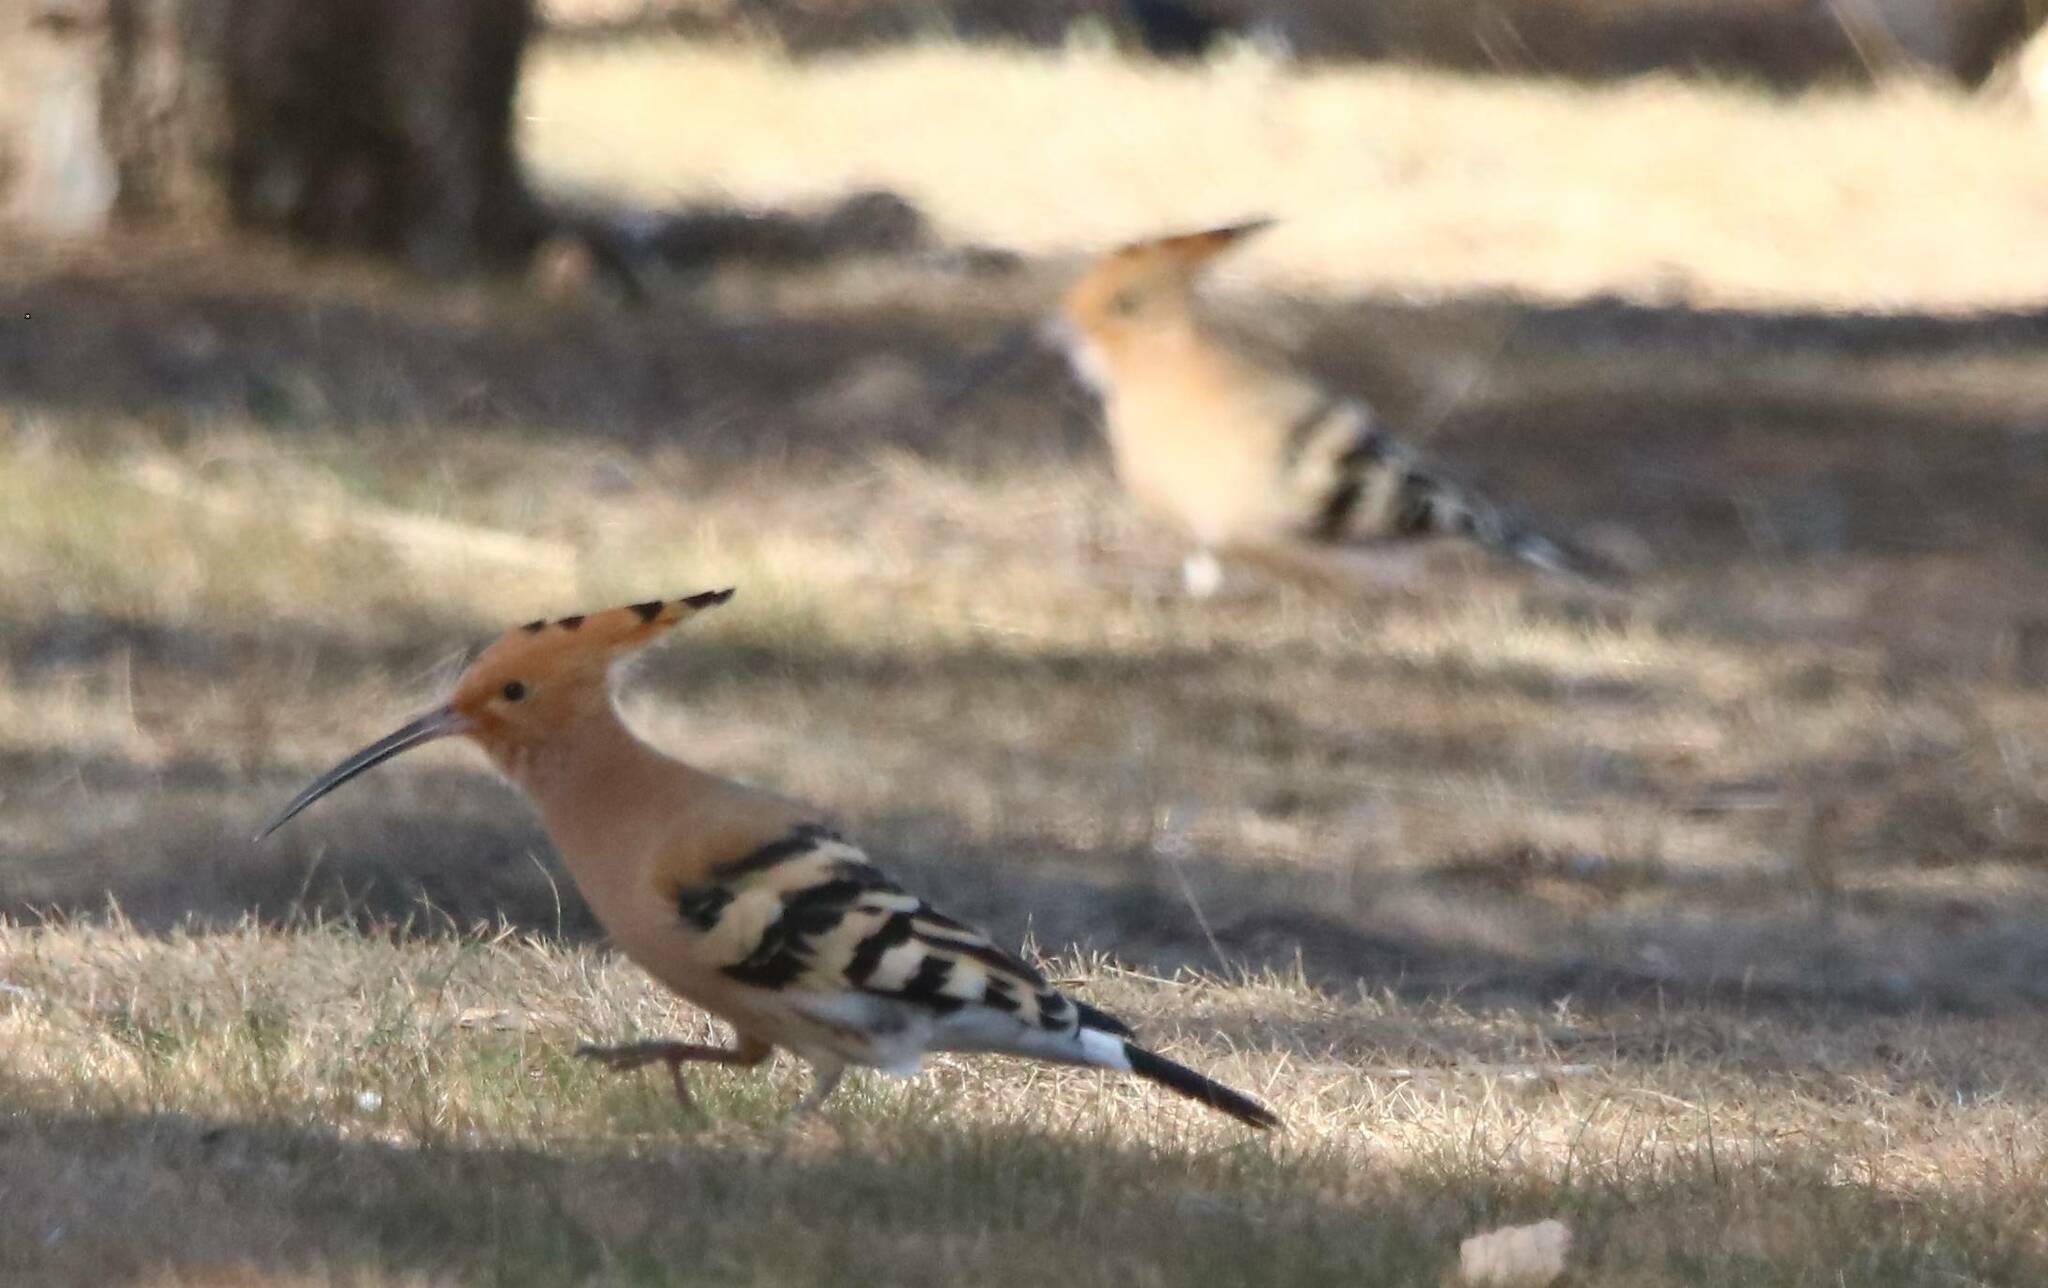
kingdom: Animalia
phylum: Chordata
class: Aves
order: Bucerotiformes
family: Upupidae
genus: Upupa
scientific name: Upupa epops
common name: Eurasian hoopoe
